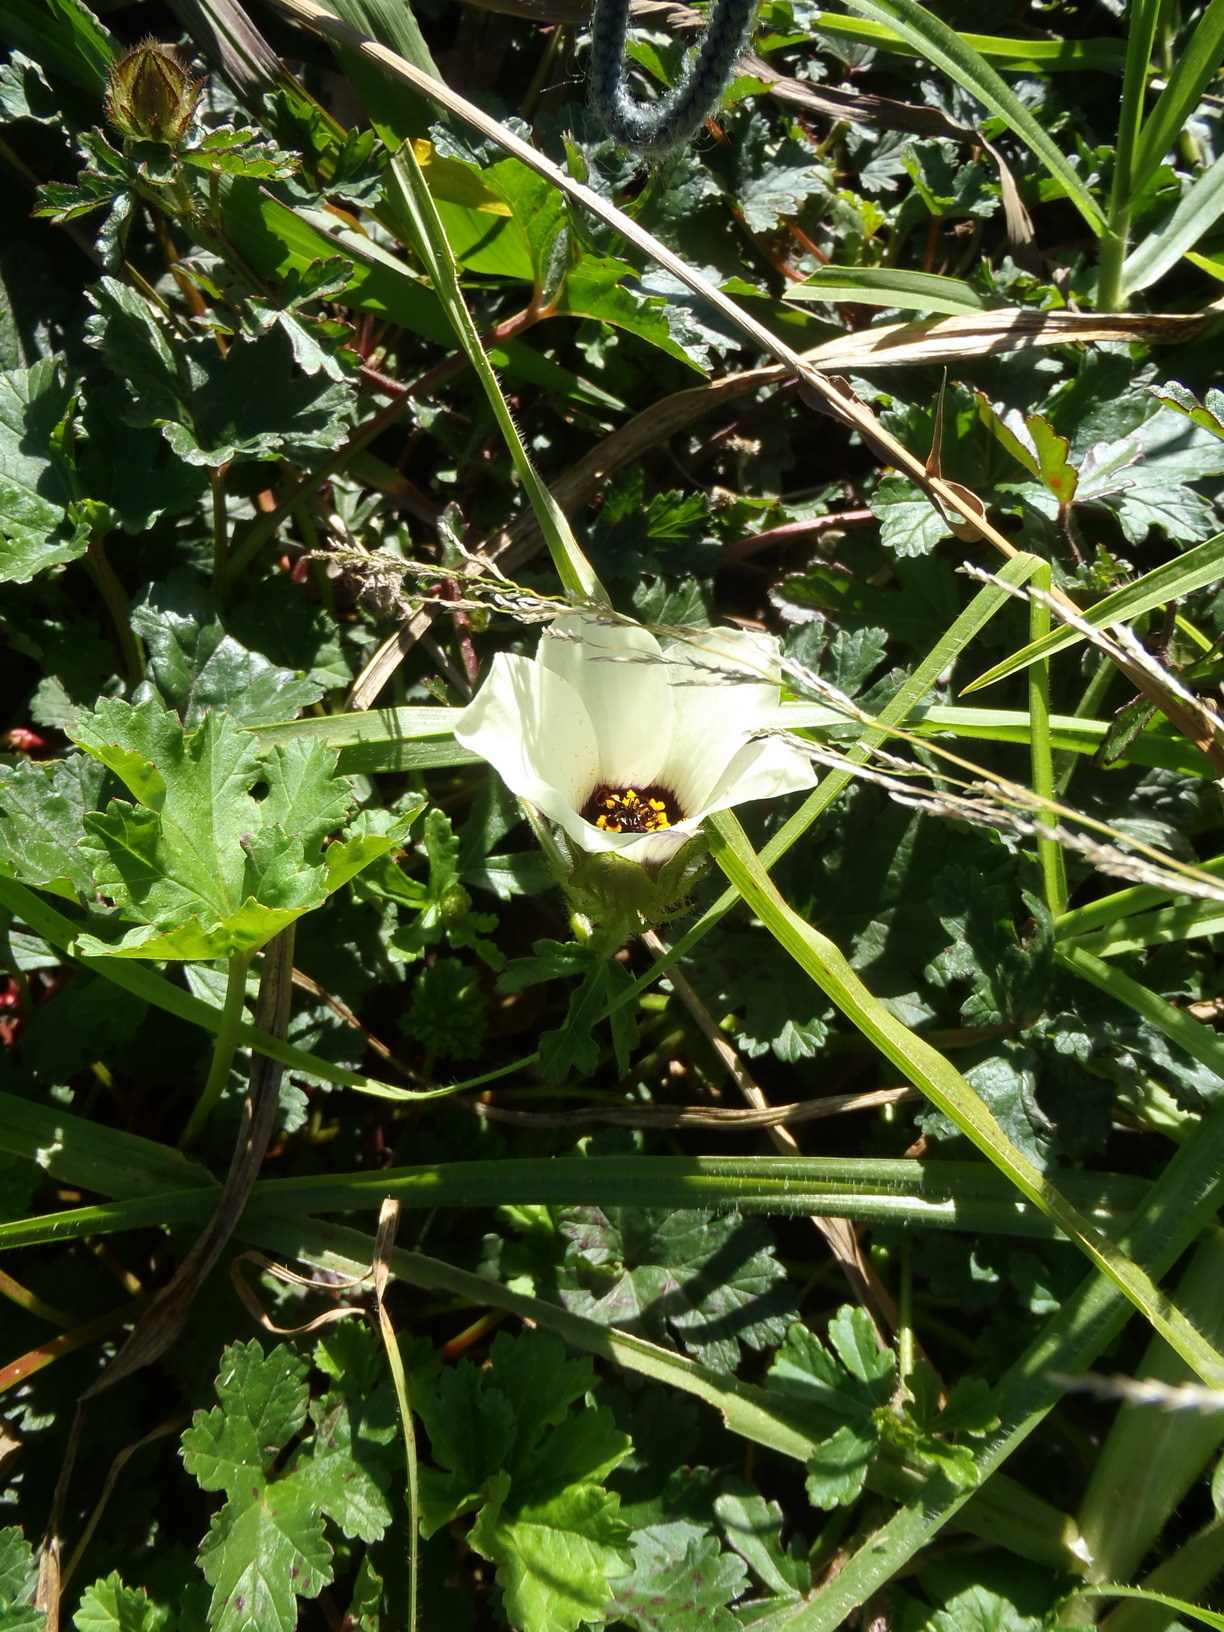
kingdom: Plantae
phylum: Tracheophyta
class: Magnoliopsida
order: Malvales
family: Malvaceae
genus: Hibiscus
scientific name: Hibiscus trionum
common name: Bladder ketmia
